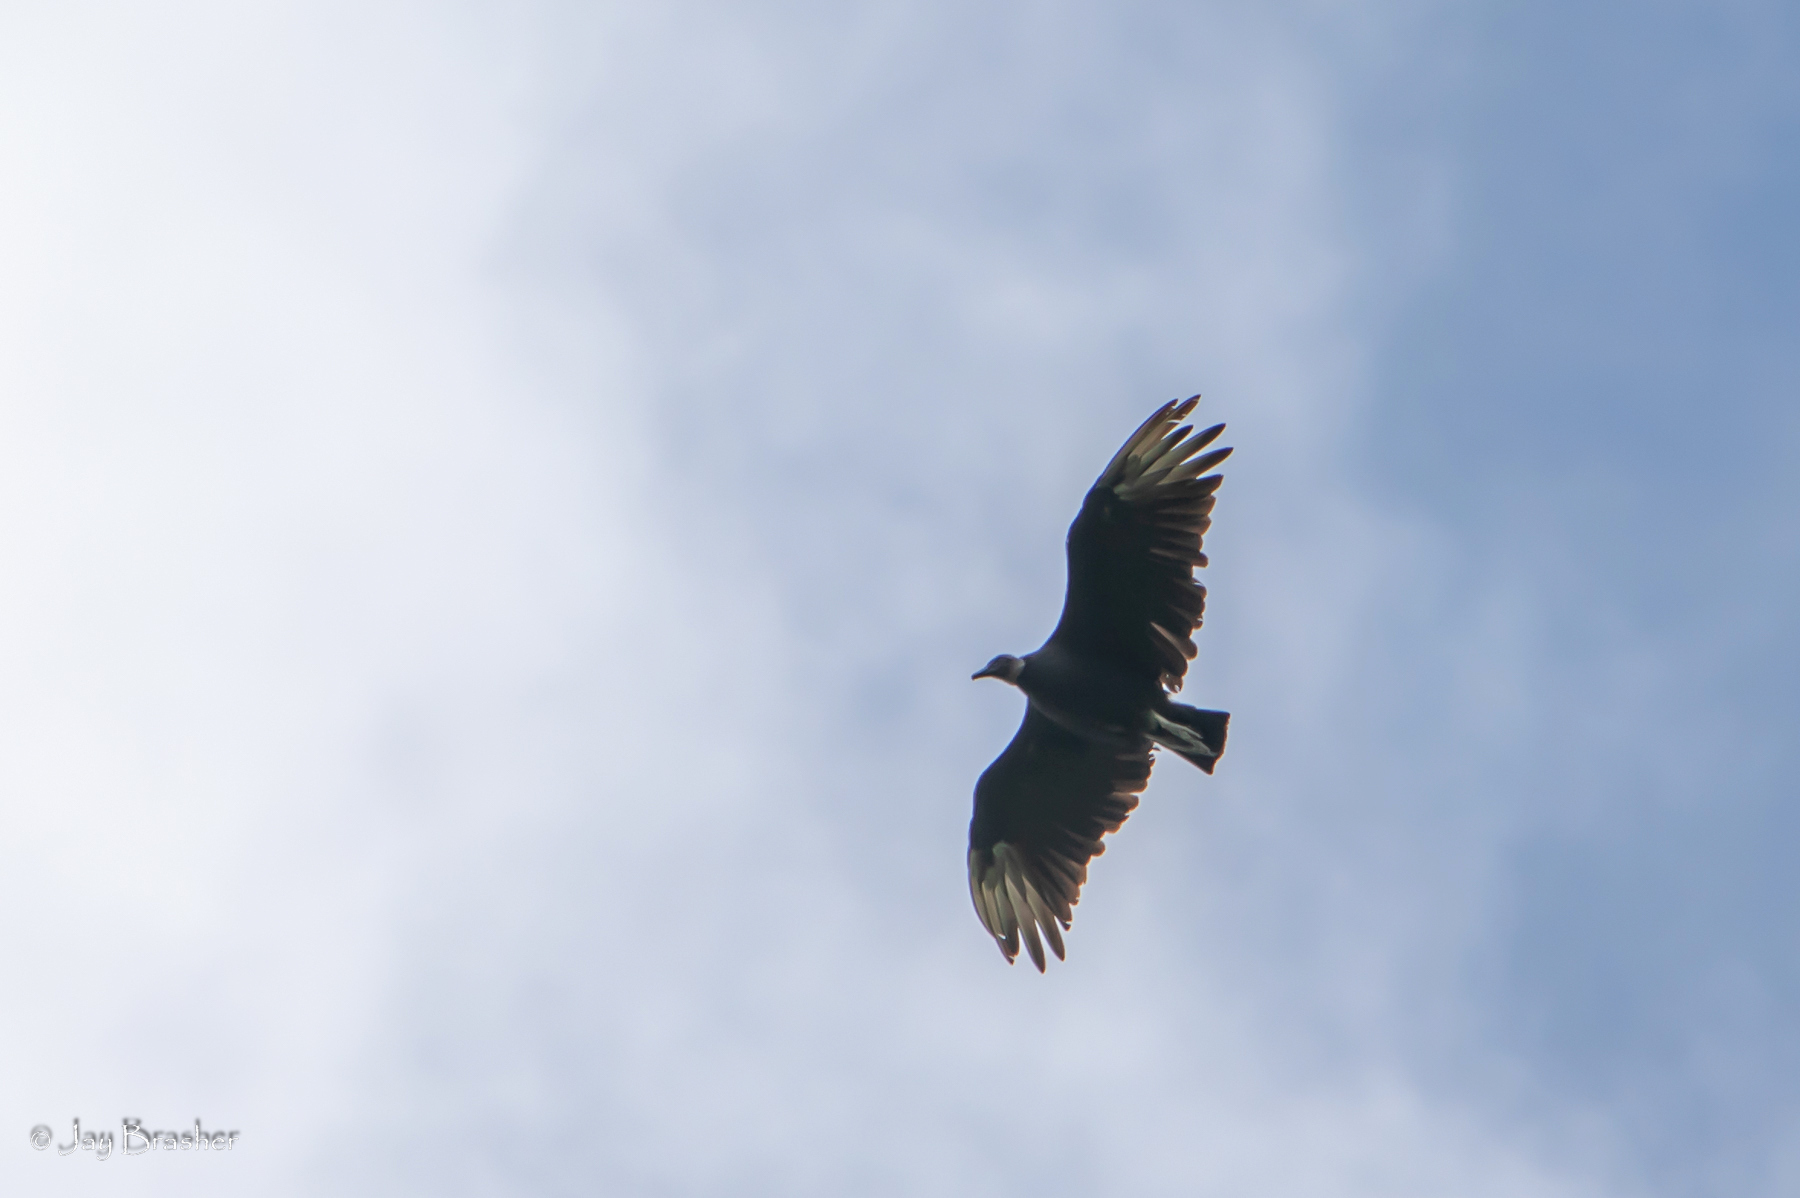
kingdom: Animalia
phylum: Chordata
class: Aves
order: Accipitriformes
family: Cathartidae
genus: Coragyps
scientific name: Coragyps atratus
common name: Black vulture
